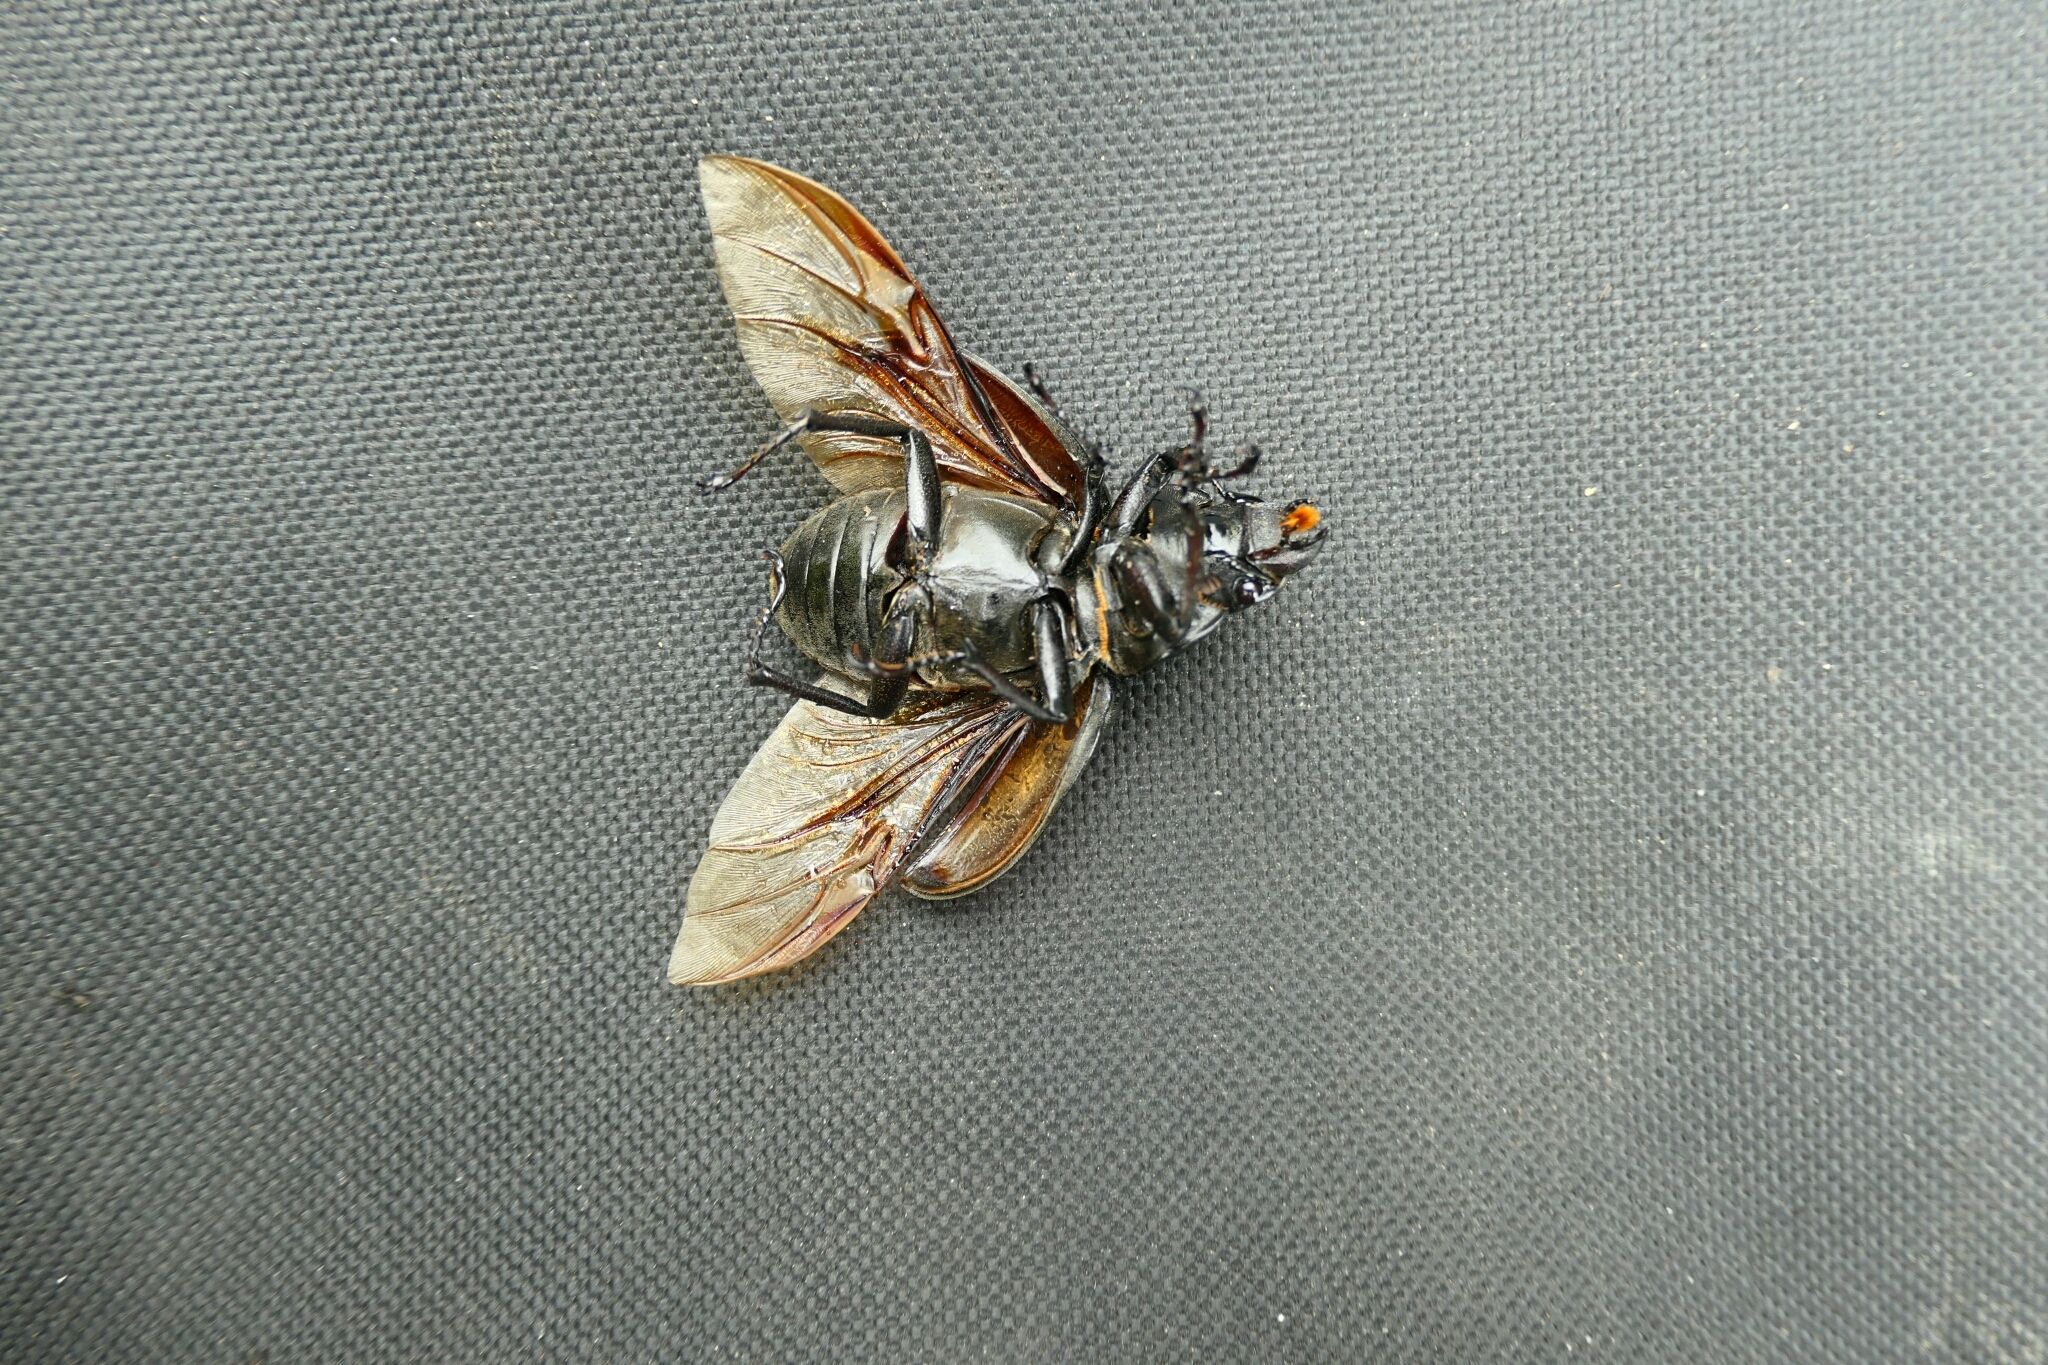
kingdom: Animalia
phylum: Arthropoda
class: Insecta
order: Coleoptera
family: Lucanidae
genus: Lucanus
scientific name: Lucanus cervus
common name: Stag beetle
